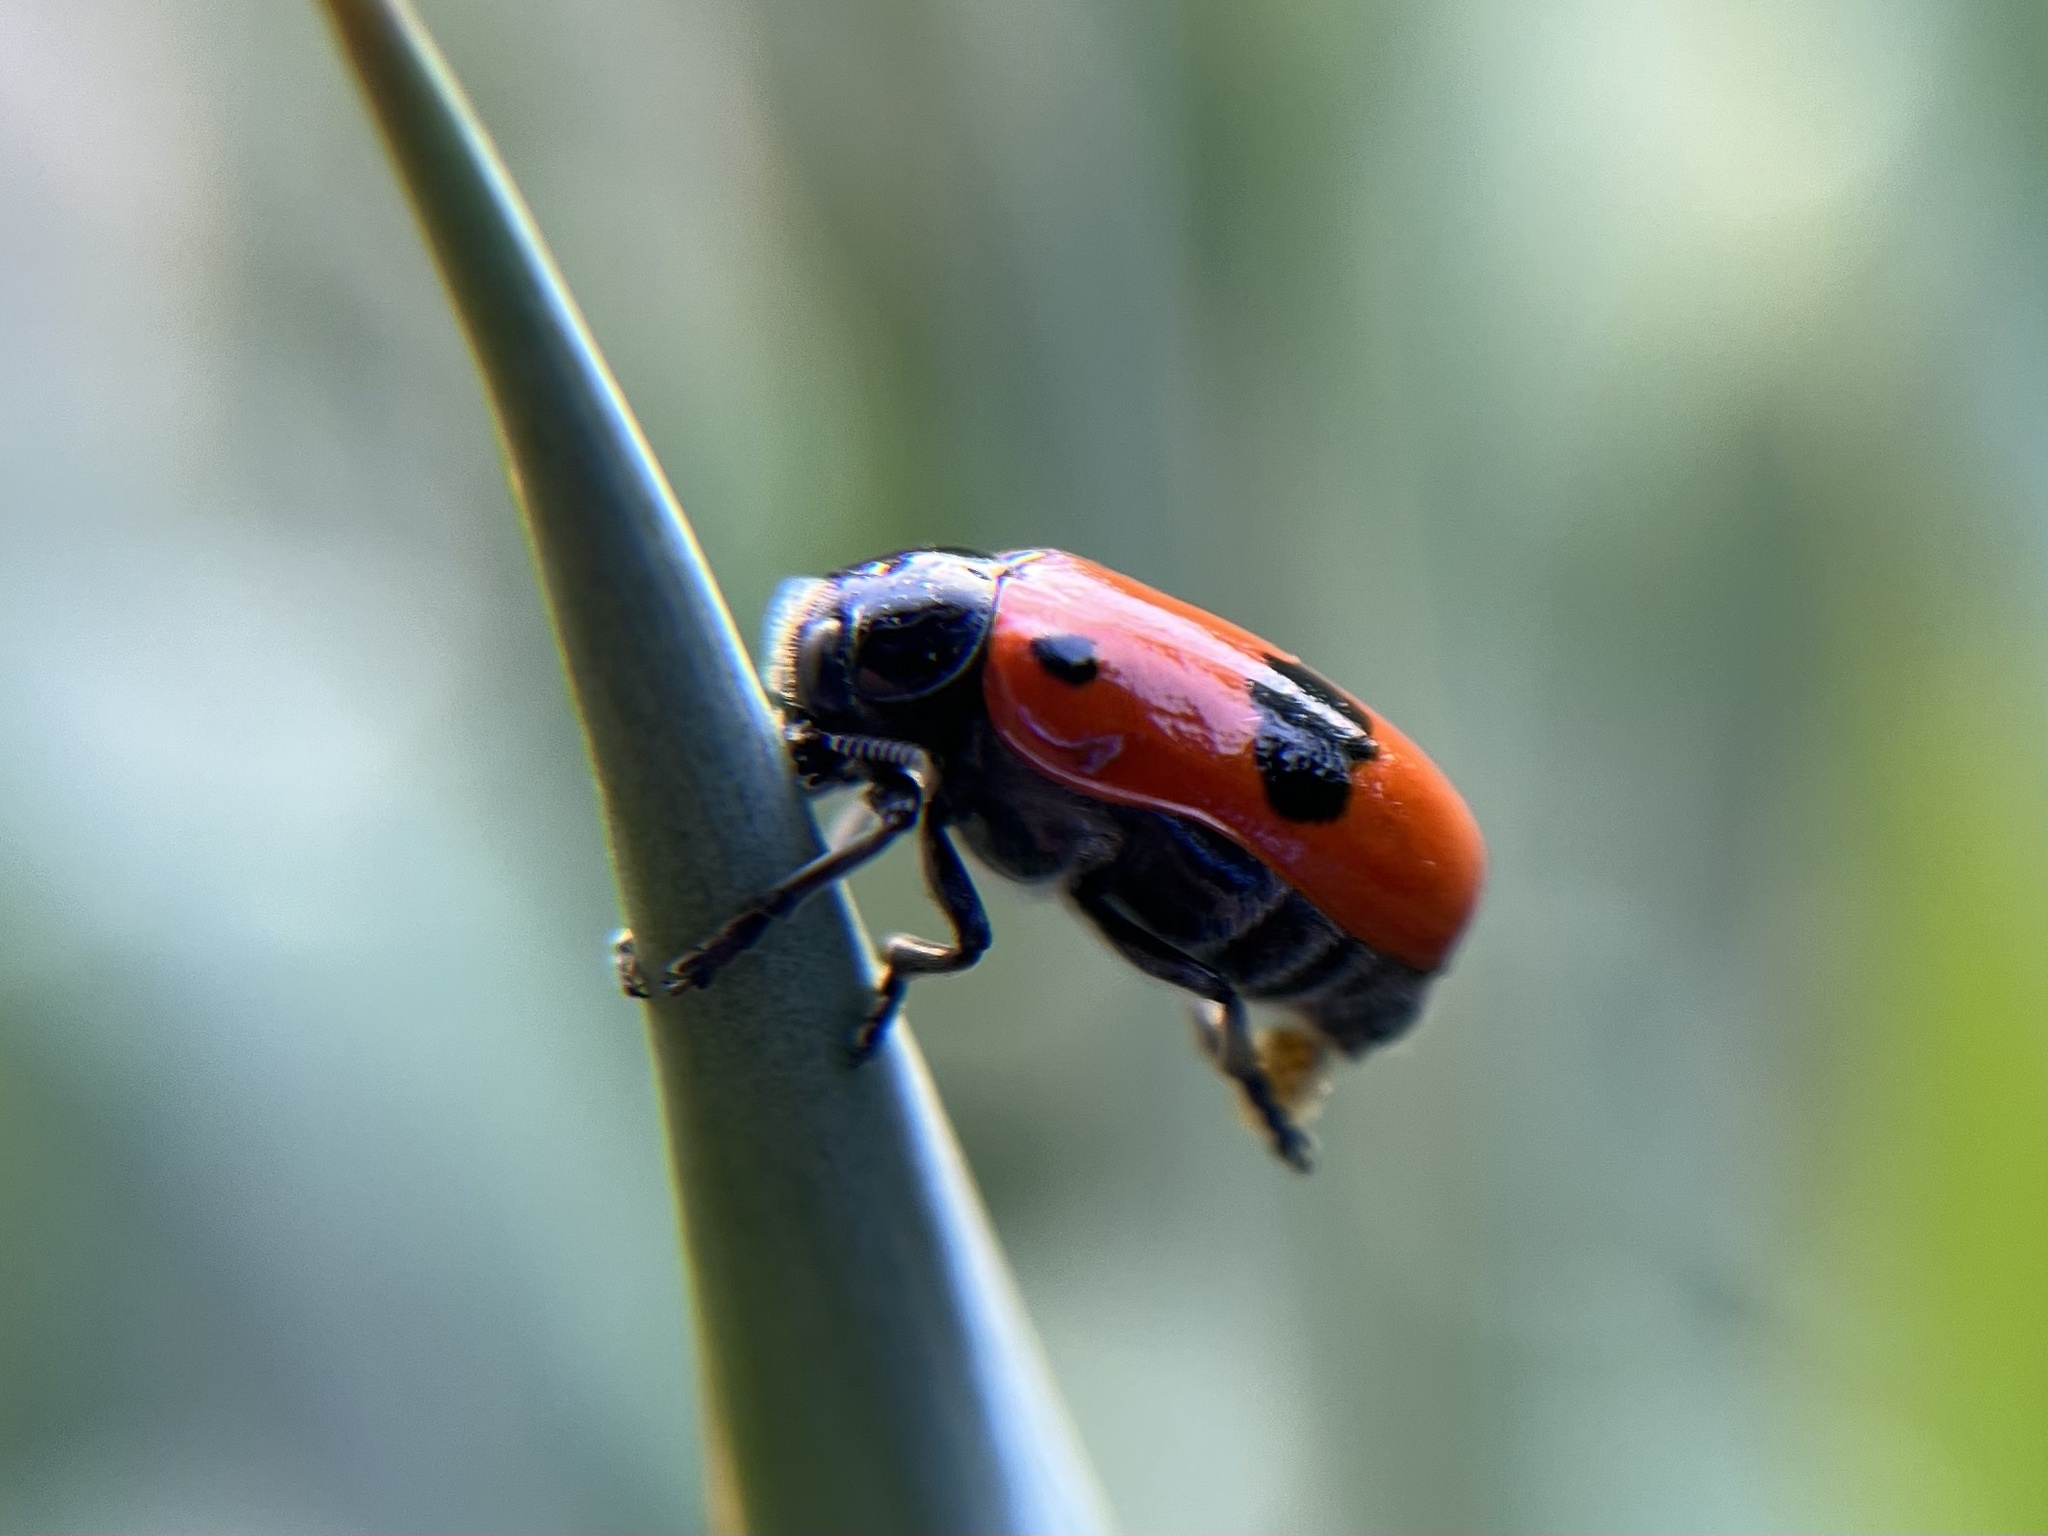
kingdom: Animalia
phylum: Arthropoda
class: Insecta
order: Coleoptera
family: Chrysomelidae
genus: Clytra
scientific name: Clytra laeviuscula
